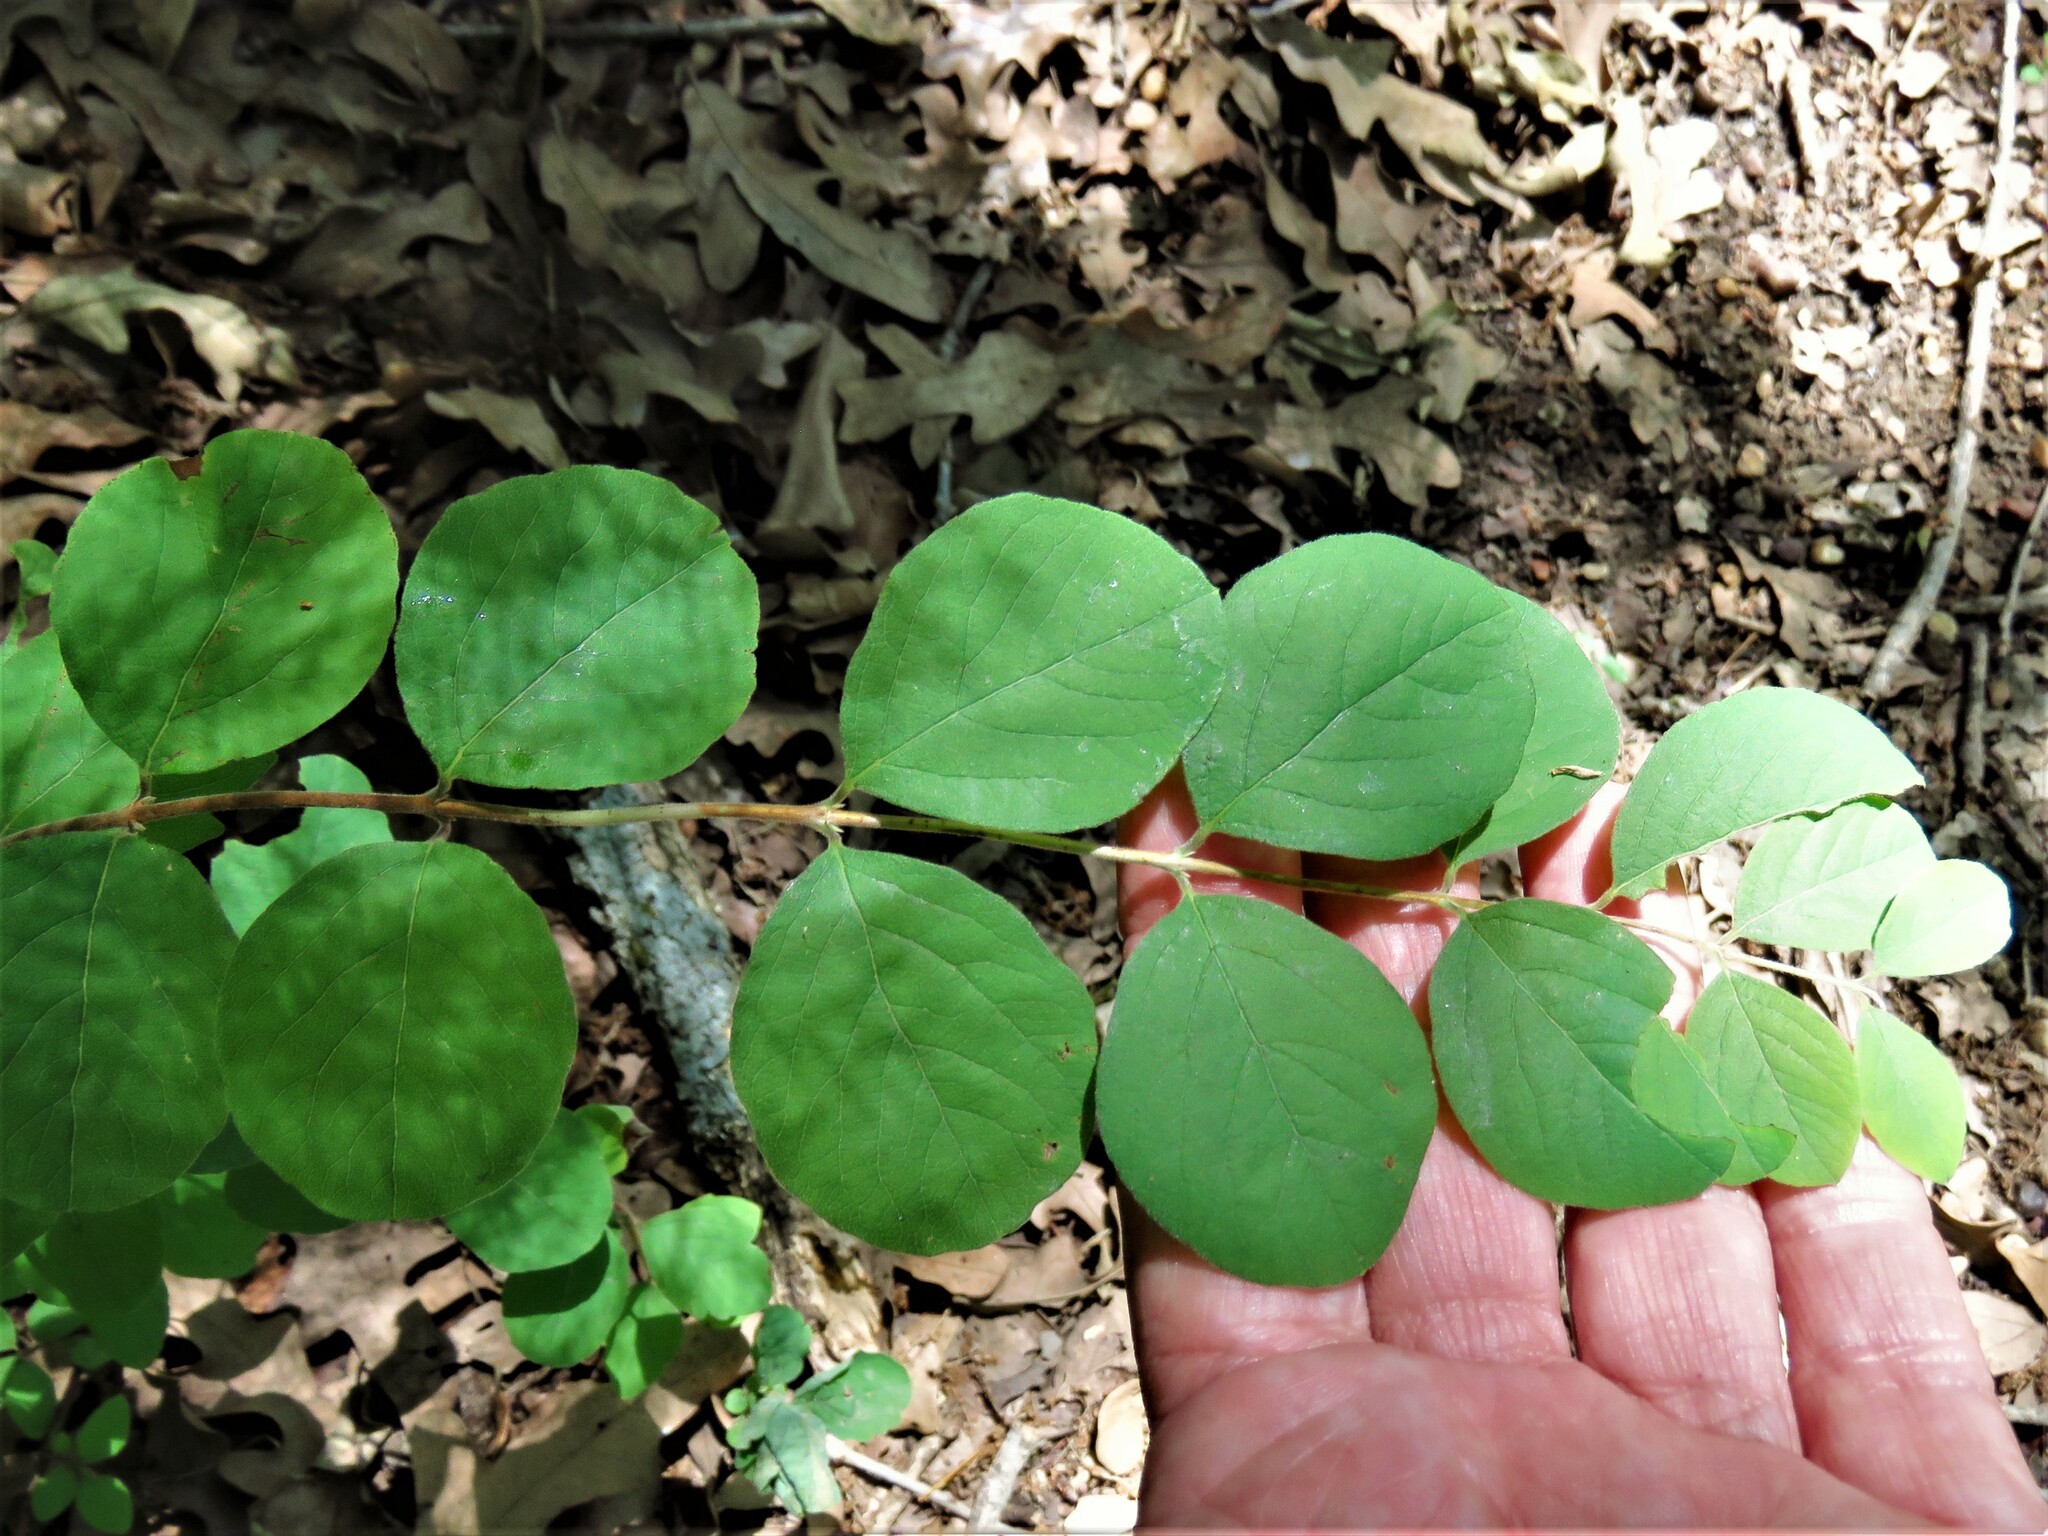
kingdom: Plantae
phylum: Tracheophyta
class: Magnoliopsida
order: Dipsacales
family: Caprifoliaceae
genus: Symphoricarpos
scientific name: Symphoricarpos orbiculatus
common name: Coralberry
